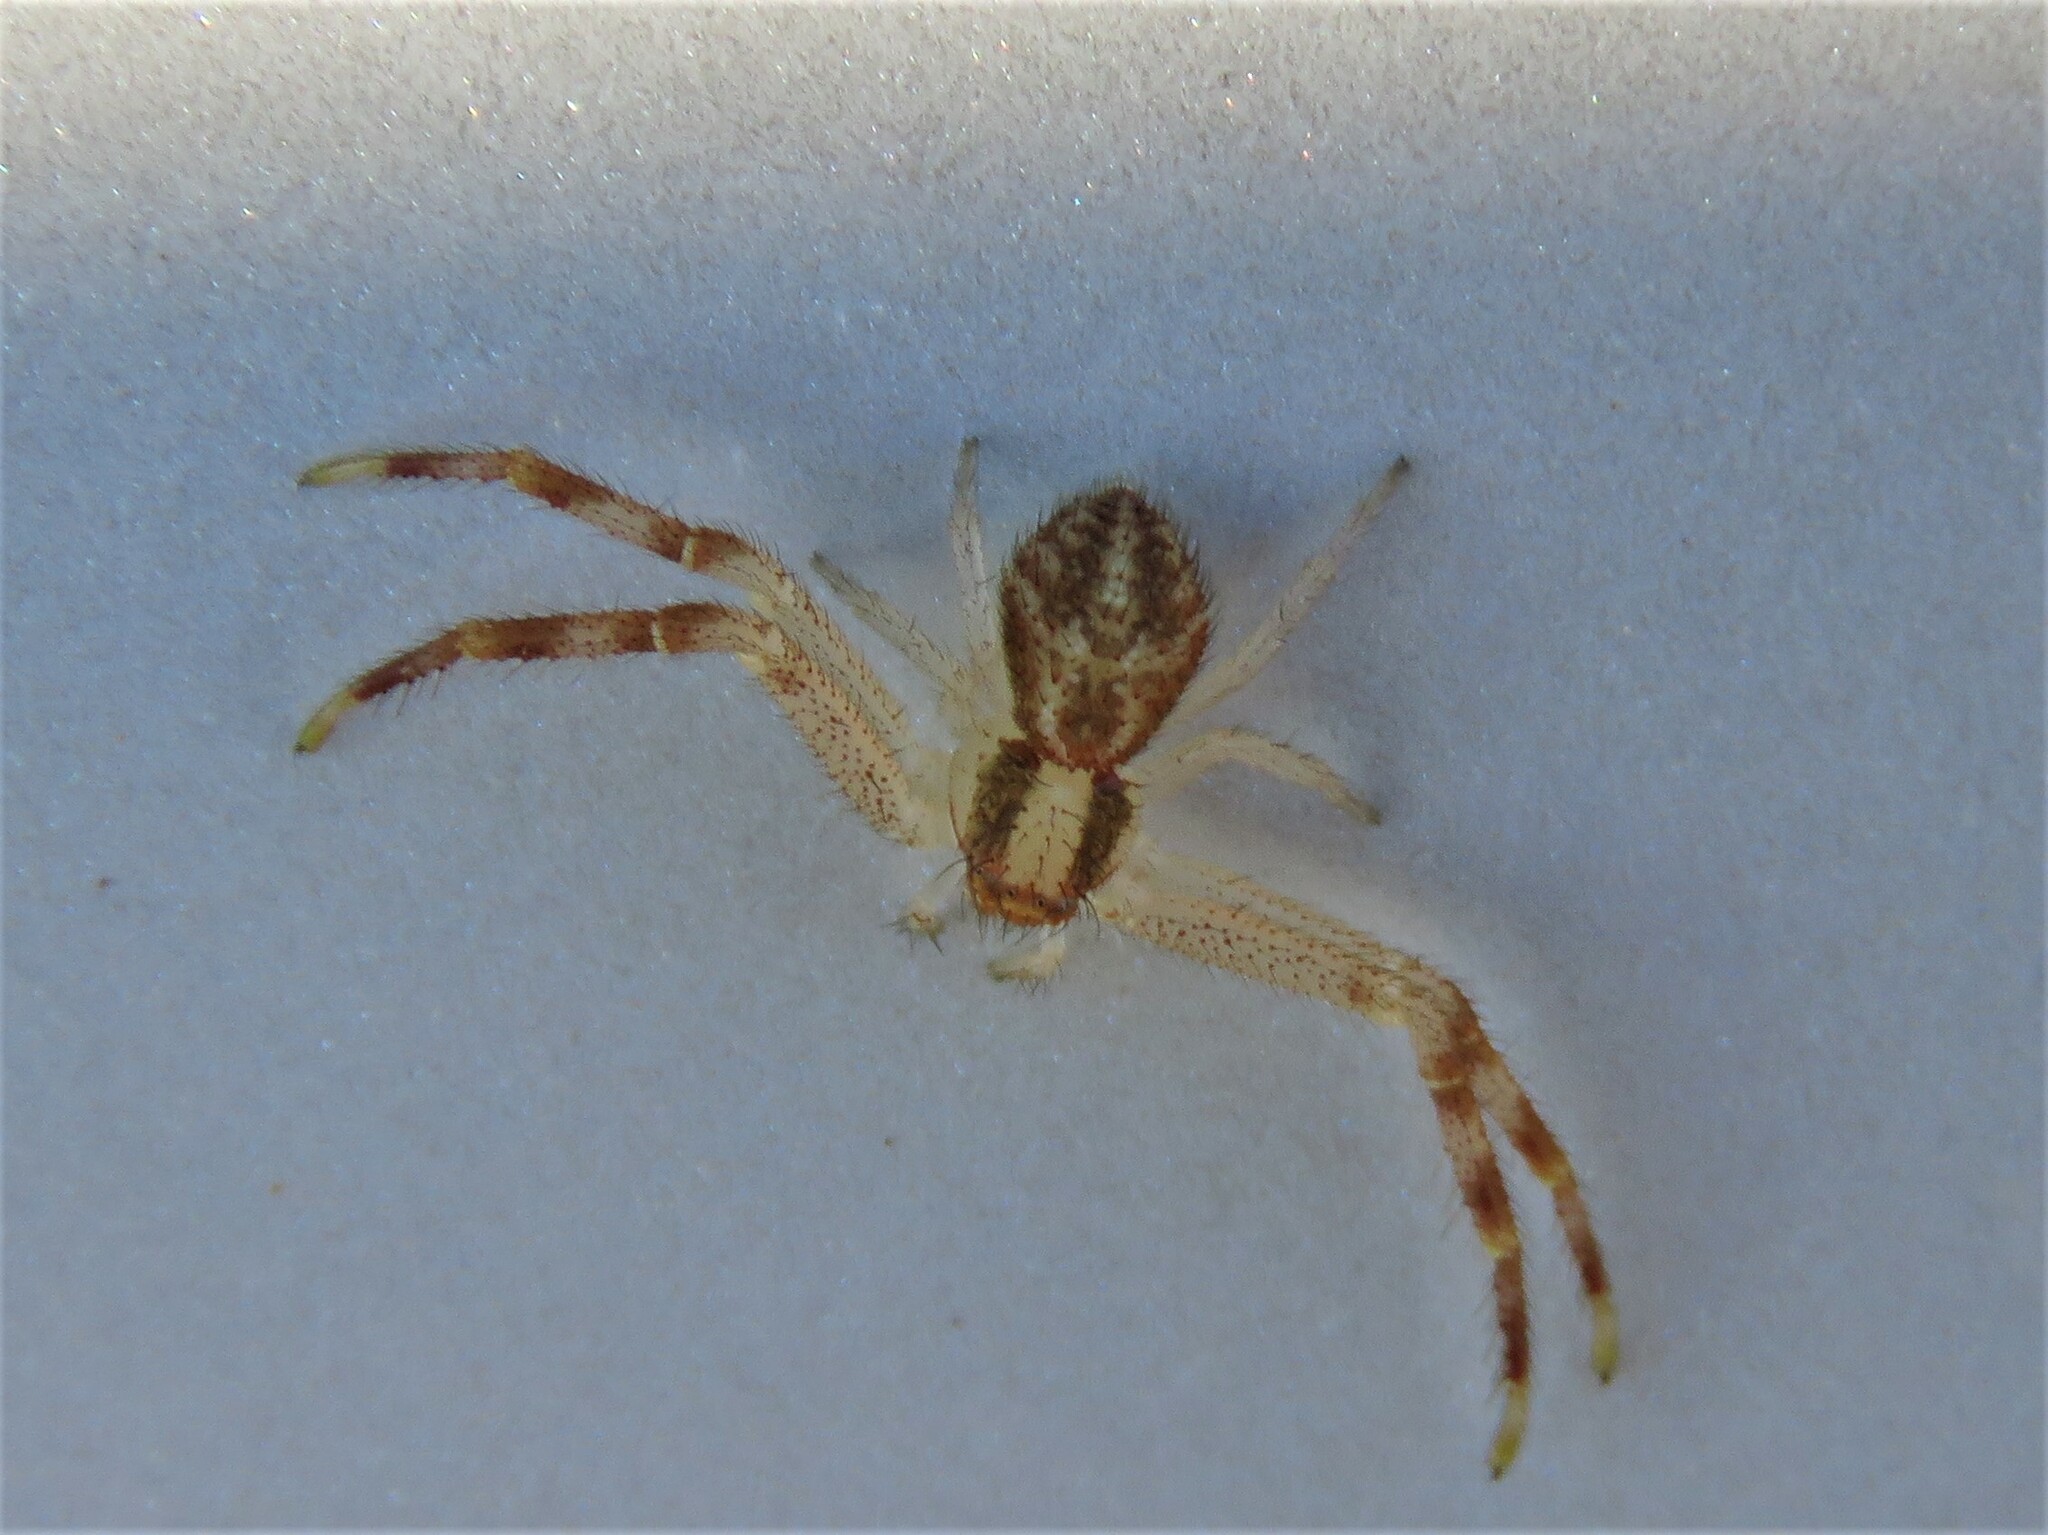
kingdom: Animalia
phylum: Arthropoda
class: Arachnida
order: Araneae
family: Thomisidae
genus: Mecaphesa
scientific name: Mecaphesa asperata
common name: Crab spiders
